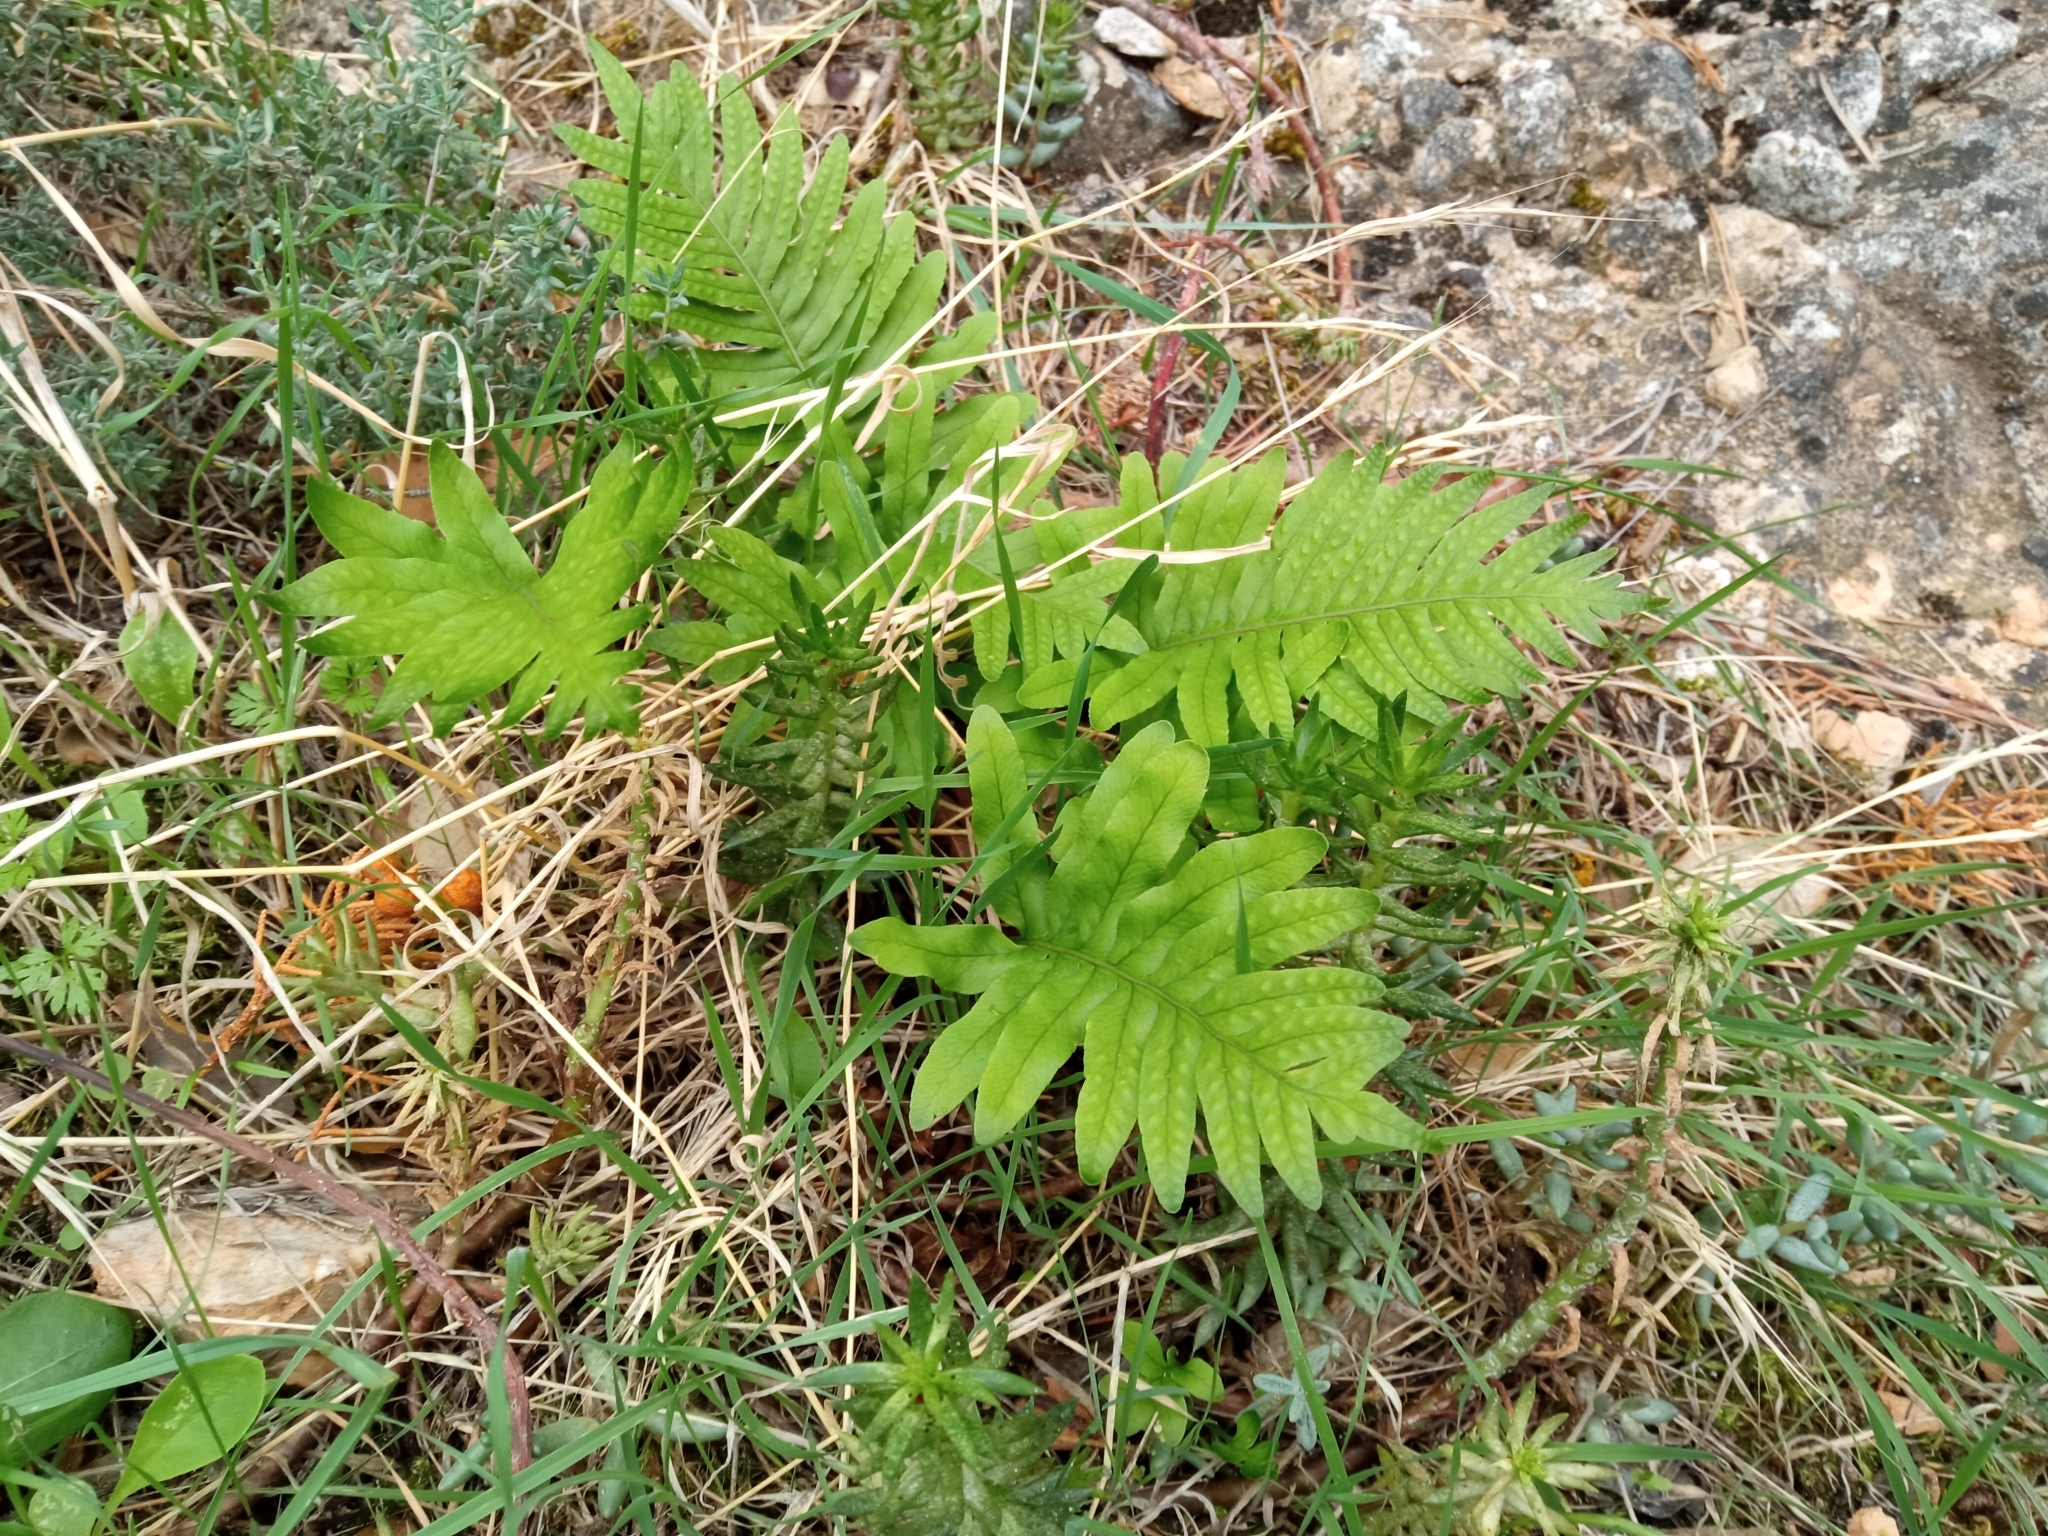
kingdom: Plantae
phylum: Tracheophyta
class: Polypodiopsida
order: Polypodiales
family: Polypodiaceae
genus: Polypodium
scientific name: Polypodium cambricum
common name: Southern polypody
